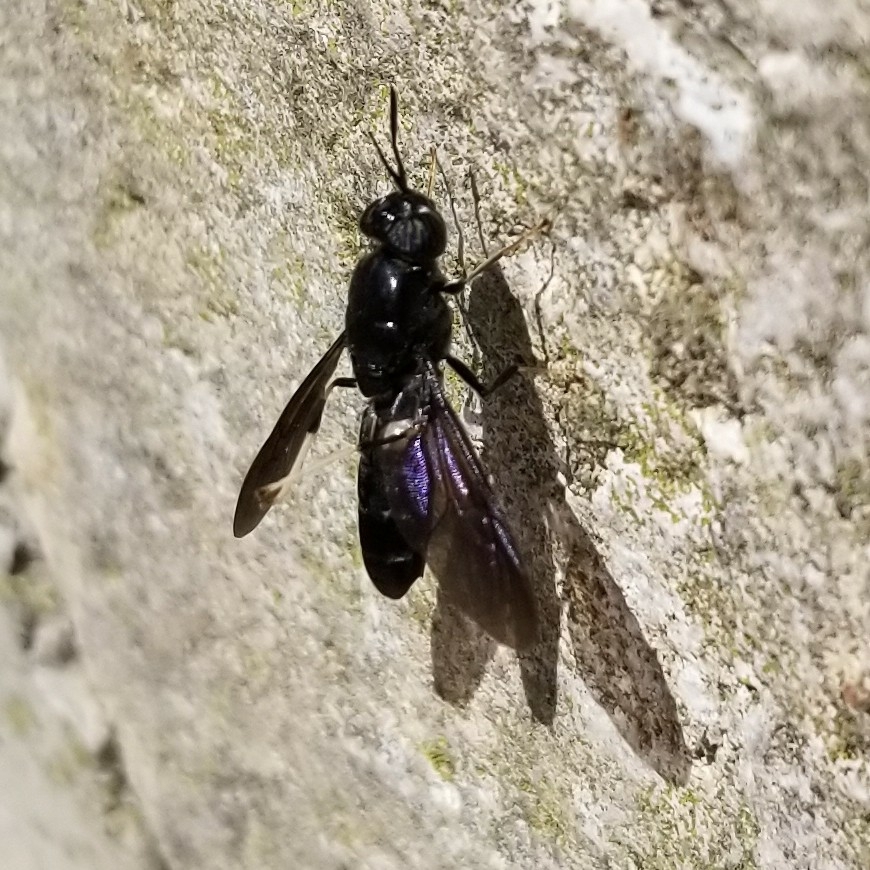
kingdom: Animalia
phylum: Arthropoda
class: Insecta
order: Diptera
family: Stratiomyidae
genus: Hermetia
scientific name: Hermetia illucens
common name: Black soldier fly
